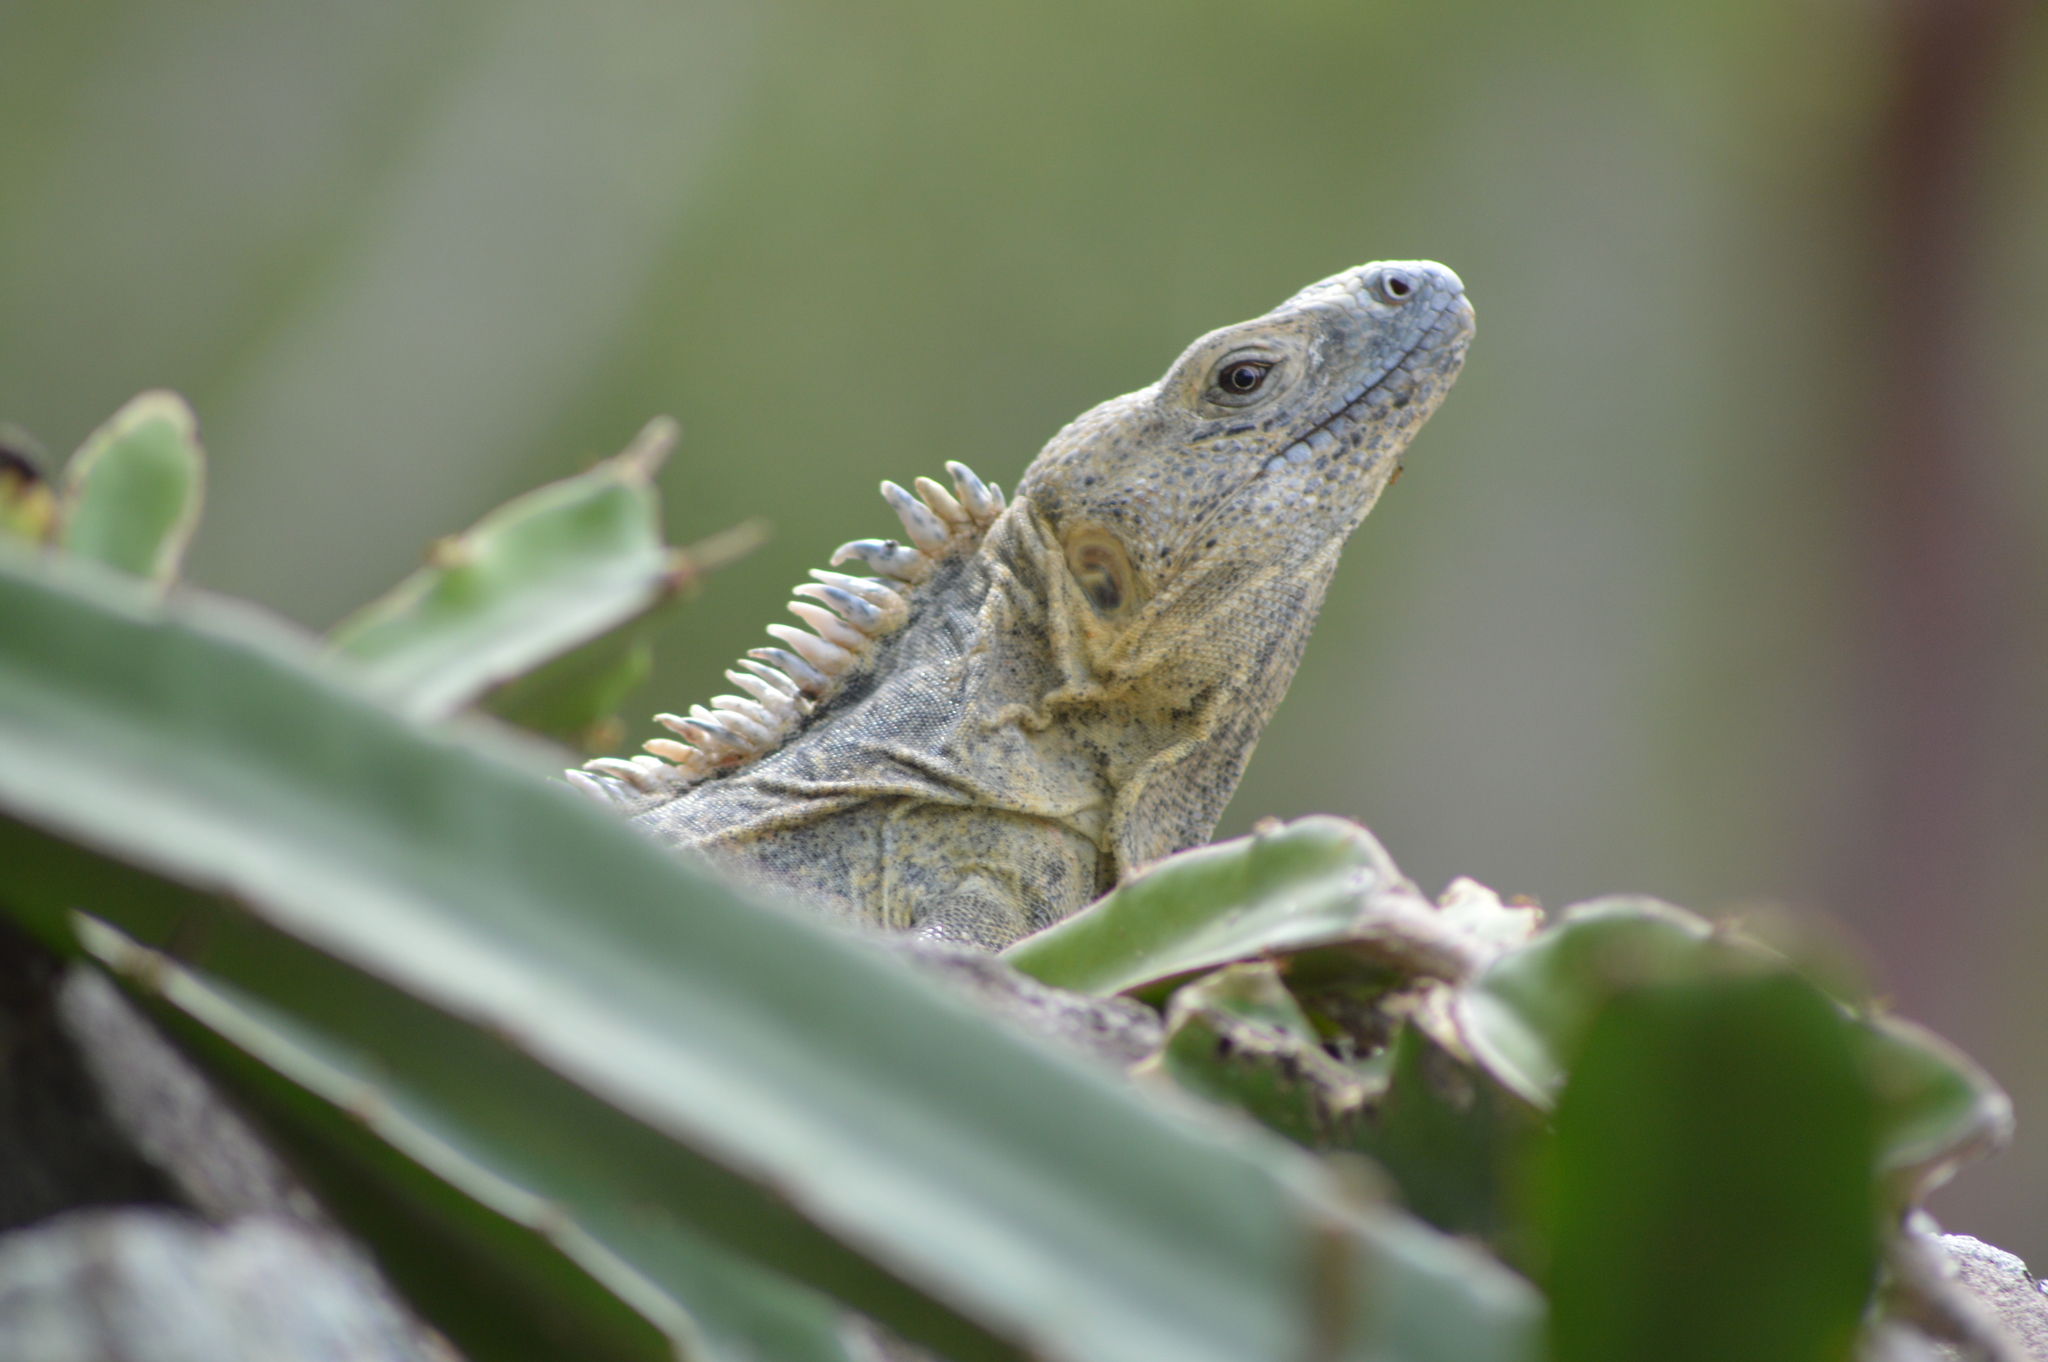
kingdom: Animalia
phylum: Chordata
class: Squamata
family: Iguanidae
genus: Ctenosaura
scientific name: Ctenosaura acanthura
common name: Northeastern spinytail iguana
